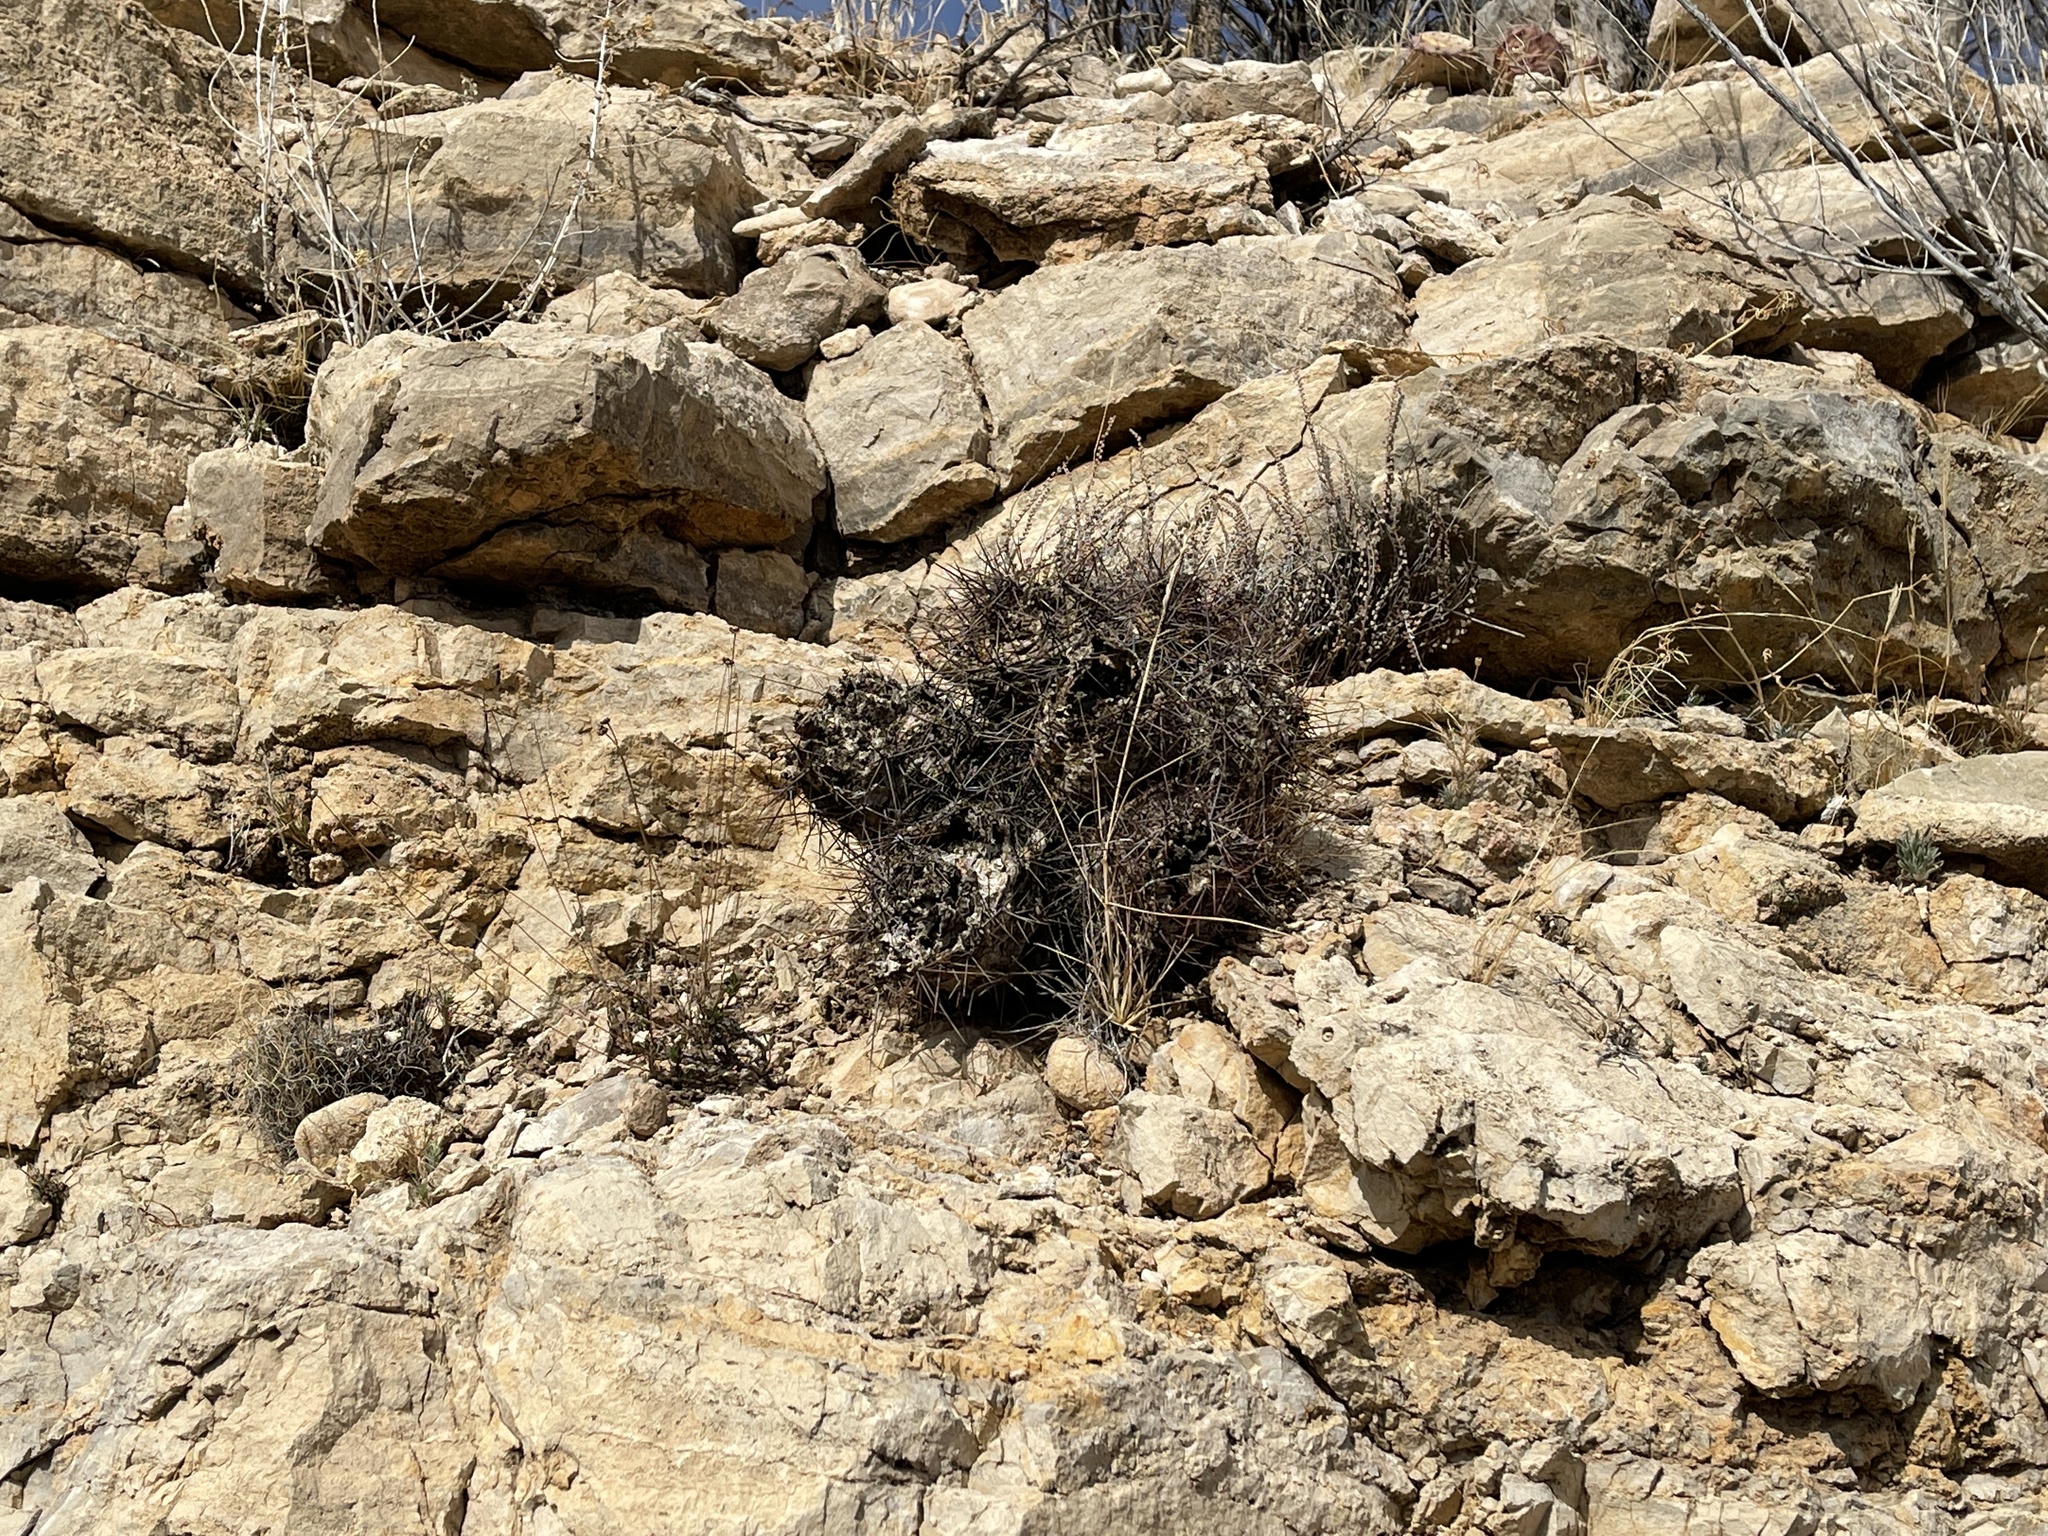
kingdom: Plantae
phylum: Tracheophyta
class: Magnoliopsida
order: Caryophyllales
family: Cactaceae
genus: Echinocereus
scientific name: Echinocereus coccineus
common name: Scarlet hedgehog cactus
